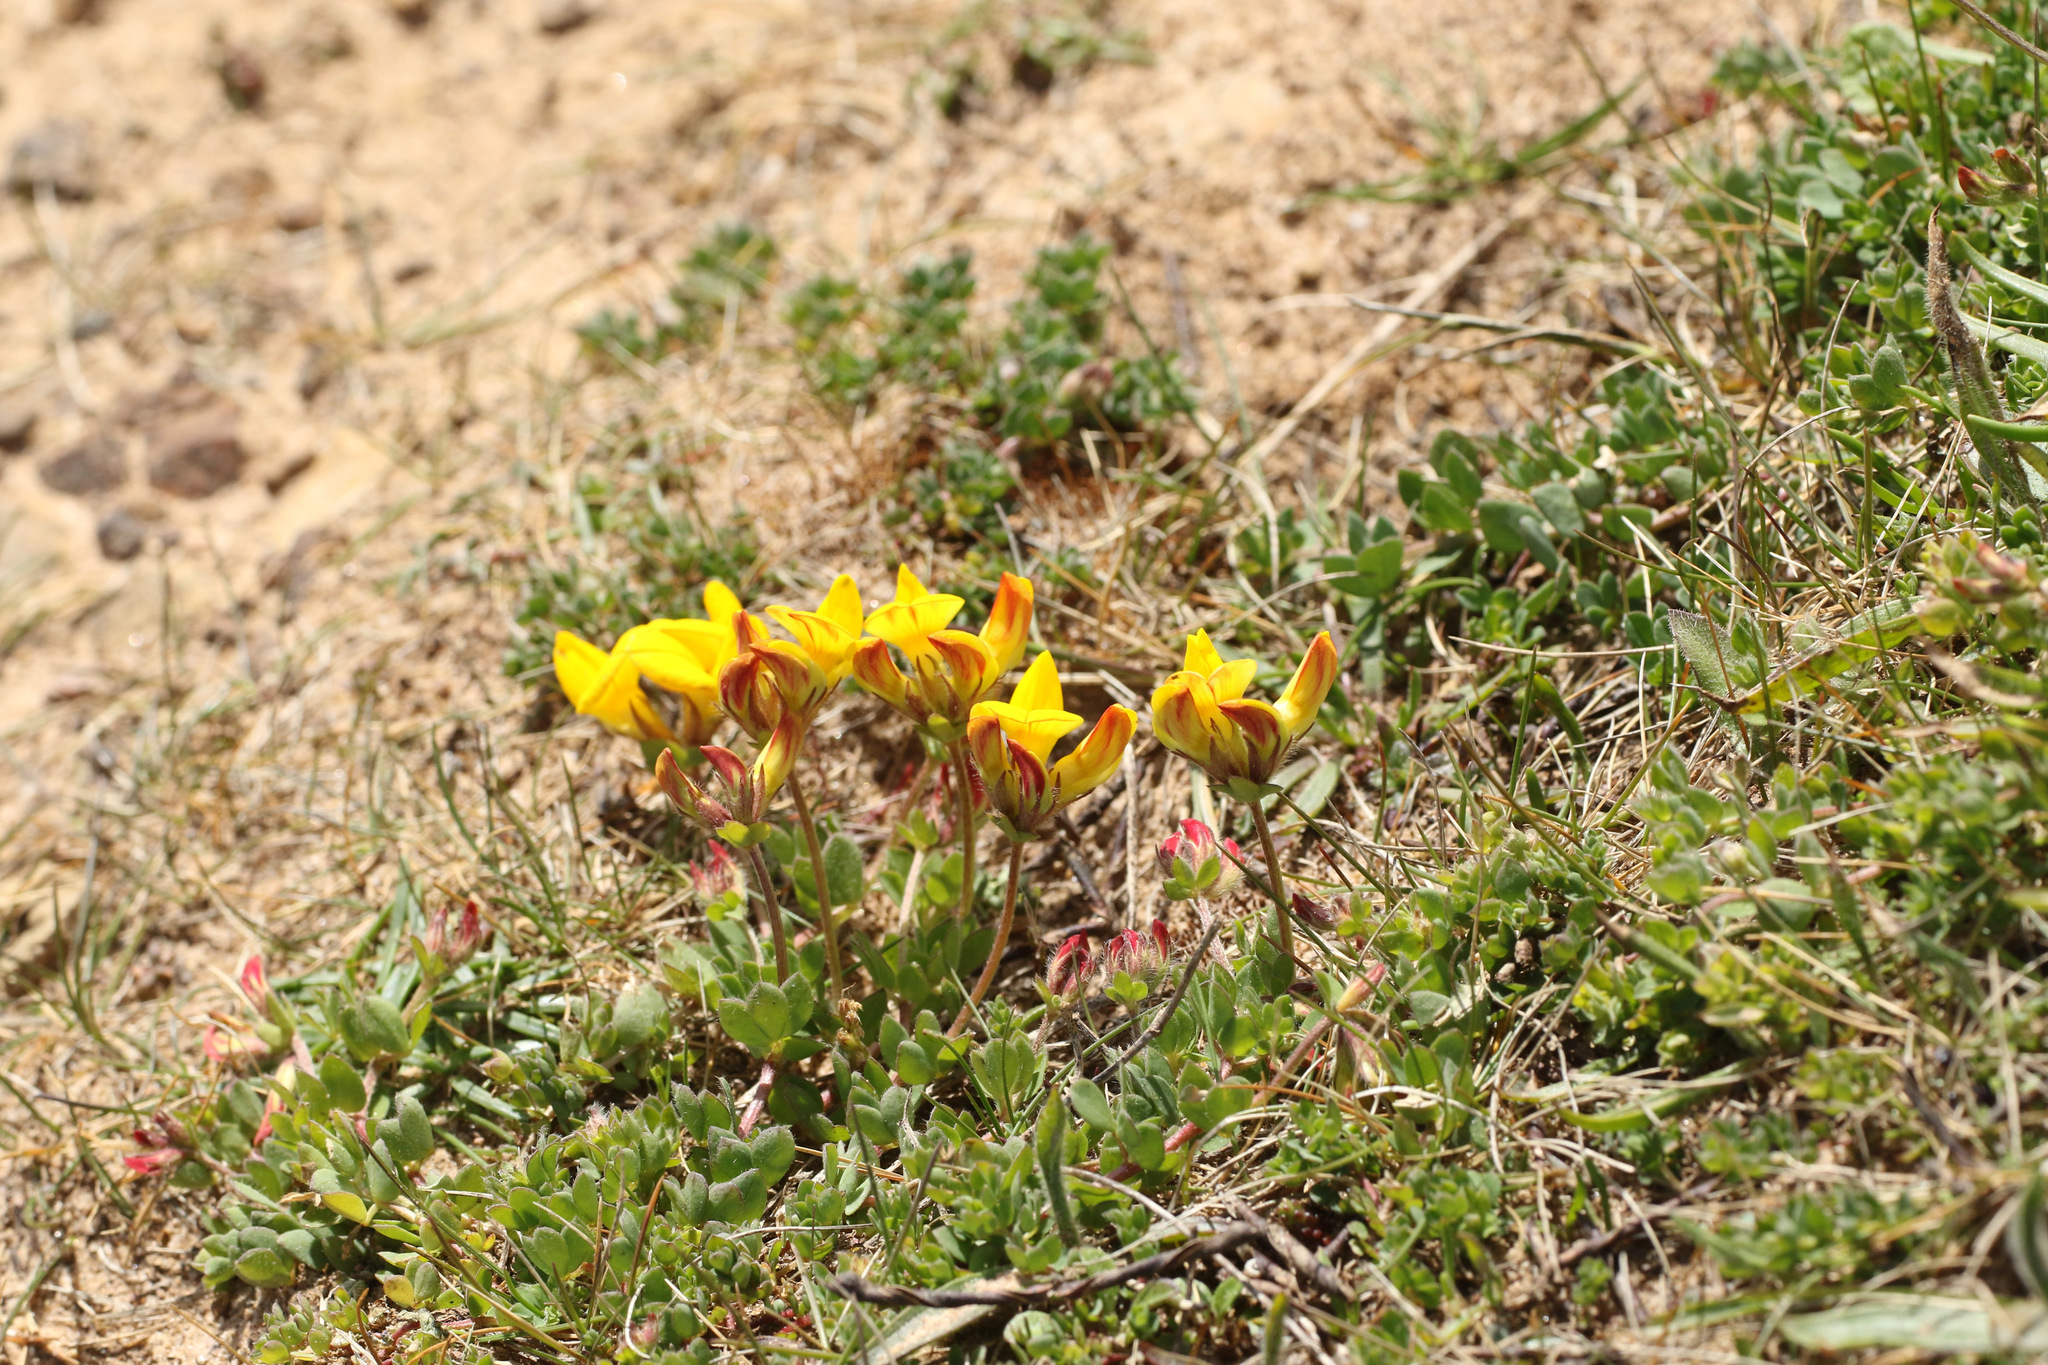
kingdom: Plantae
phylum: Tracheophyta
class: Magnoliopsida
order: Fabales
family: Fabaceae
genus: Lotus
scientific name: Lotus corniculatus
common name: Common bird's-foot-trefoil
